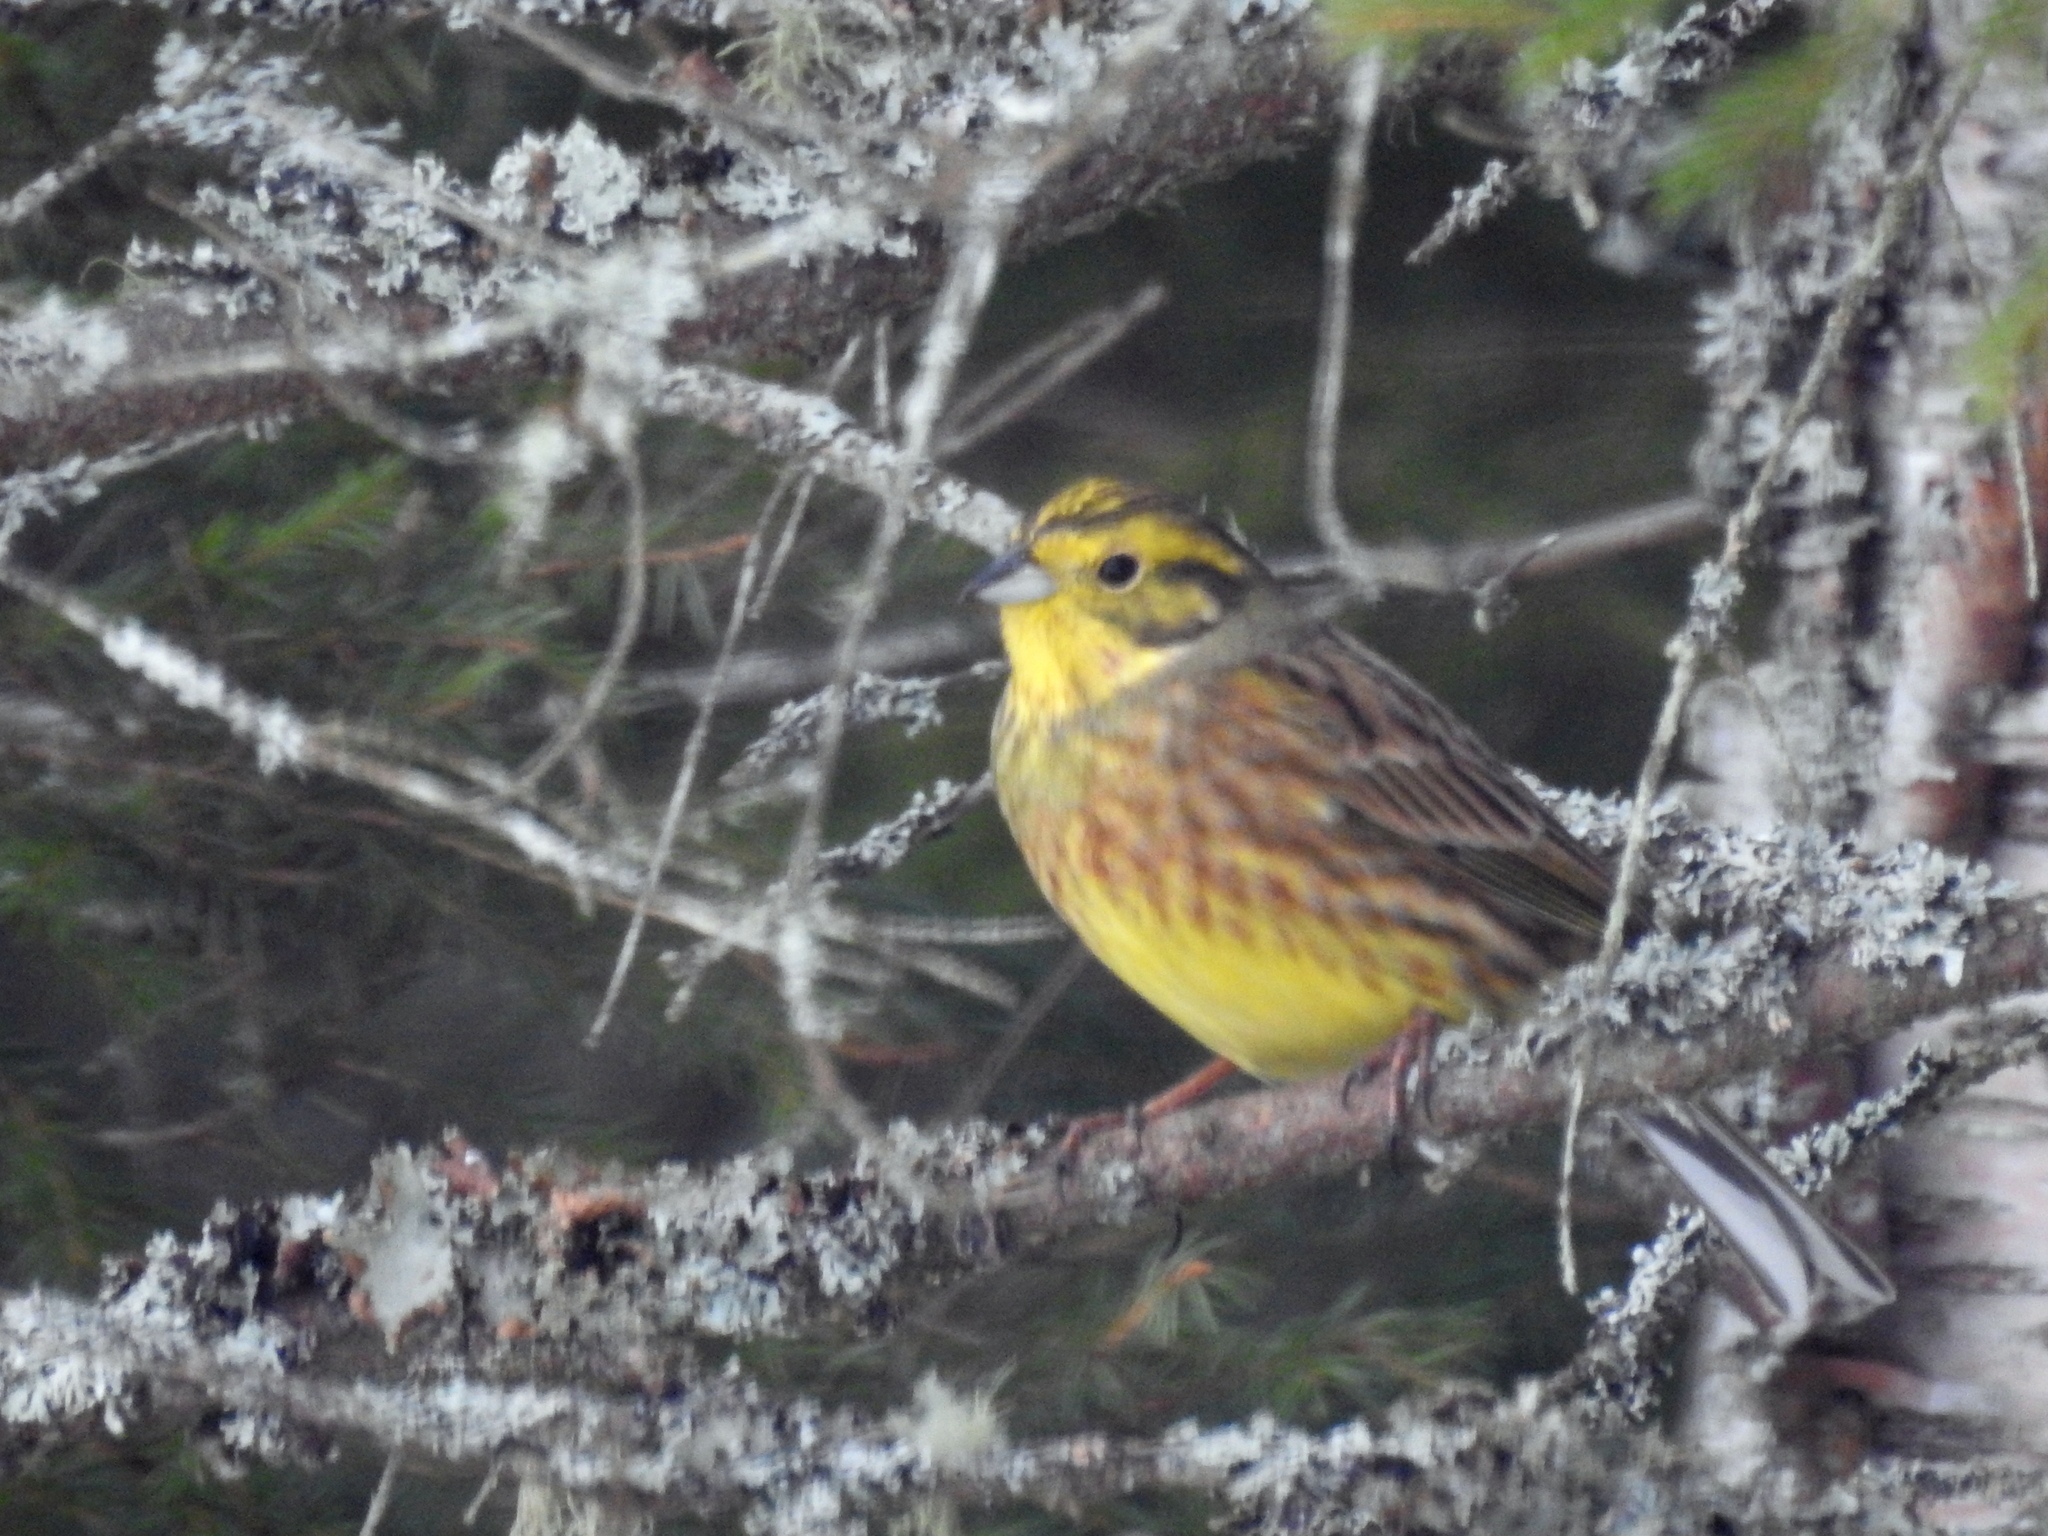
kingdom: Animalia
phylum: Chordata
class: Aves
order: Passeriformes
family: Emberizidae
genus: Emberiza
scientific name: Emberiza citrinella
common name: Yellowhammer
